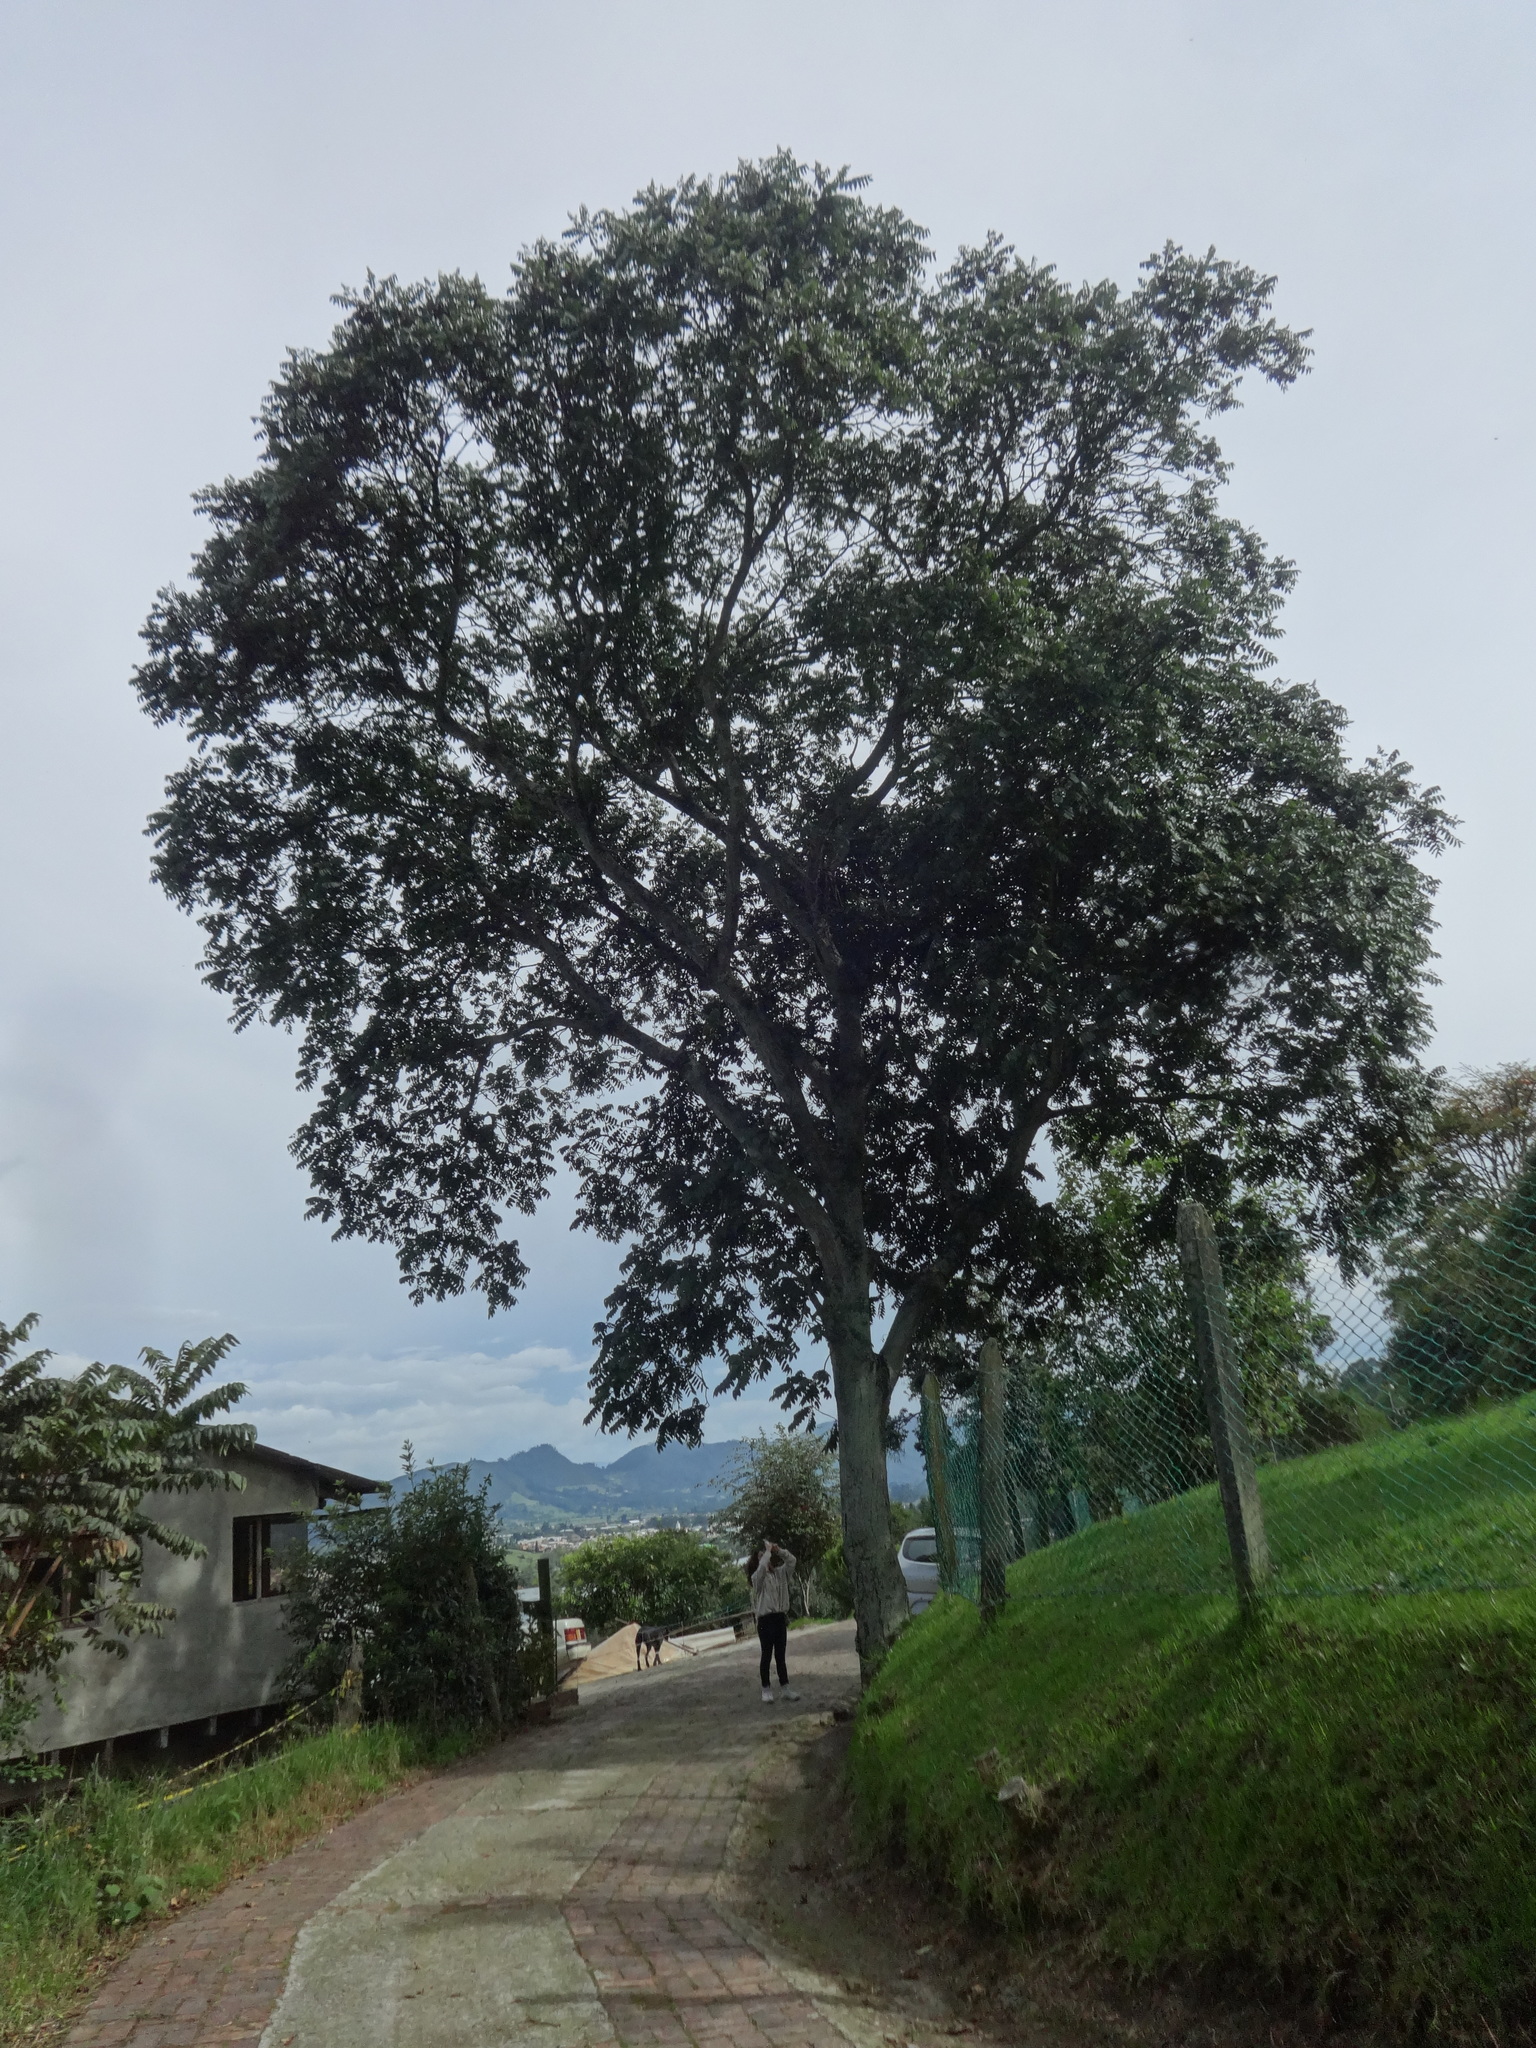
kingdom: Plantae
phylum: Tracheophyta
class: Magnoliopsida
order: Sapindales
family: Meliaceae
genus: Cedrela
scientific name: Cedrela montana
